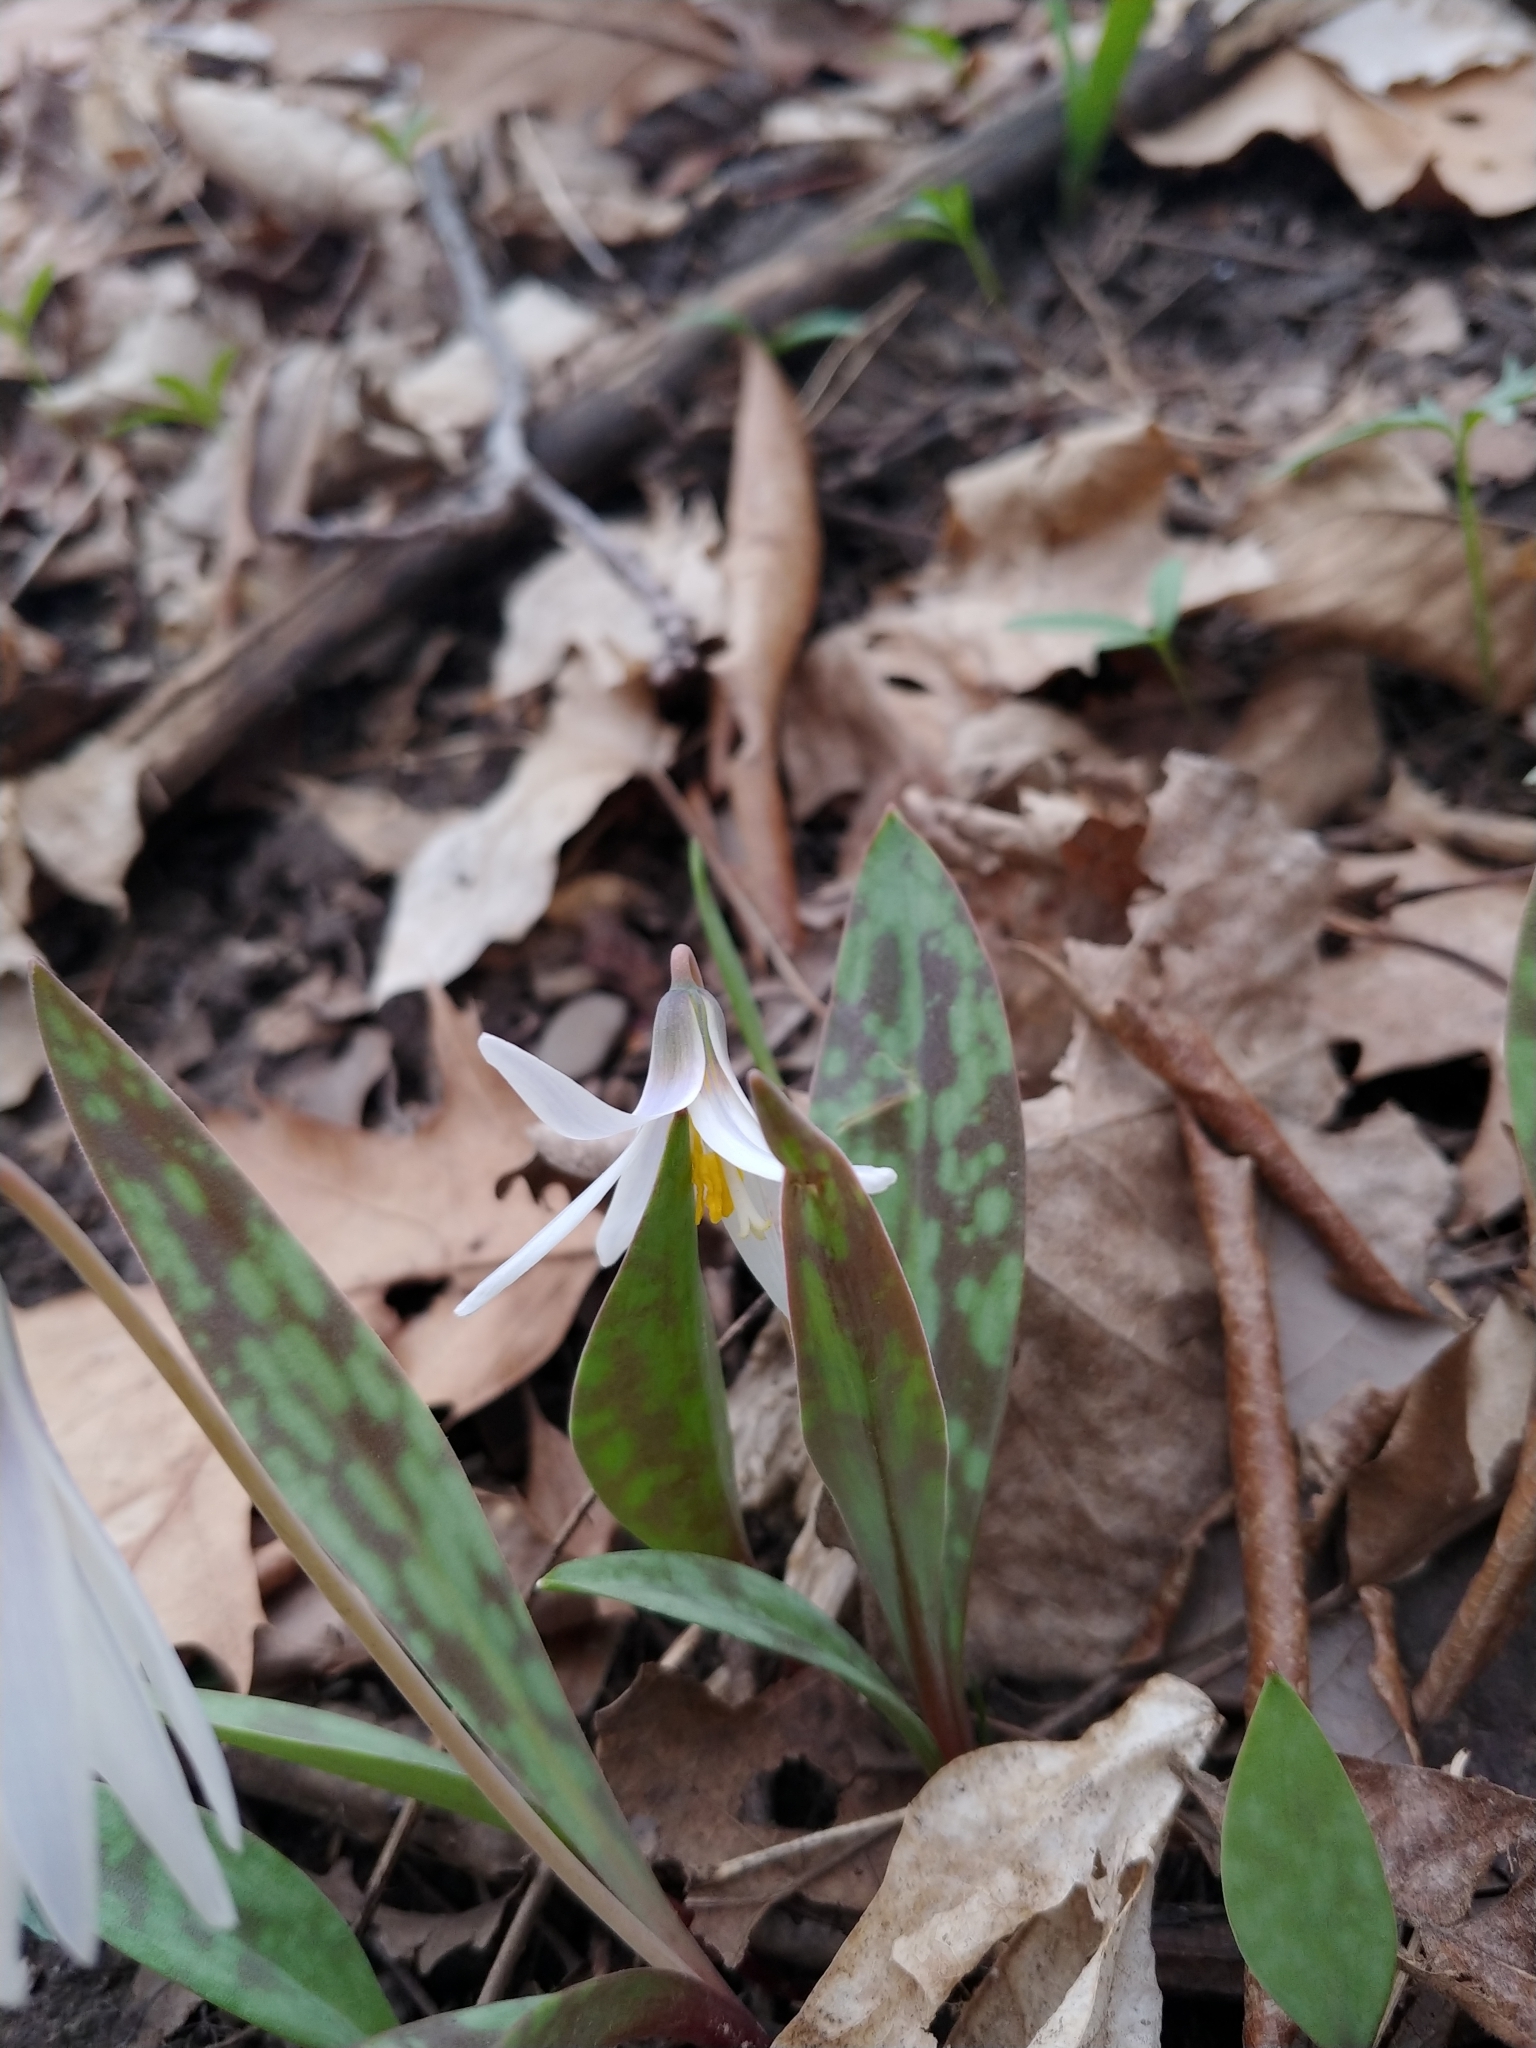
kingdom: Plantae
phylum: Tracheophyta
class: Liliopsida
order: Liliales
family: Liliaceae
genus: Erythronium
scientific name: Erythronium albidum
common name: White trout-lily
